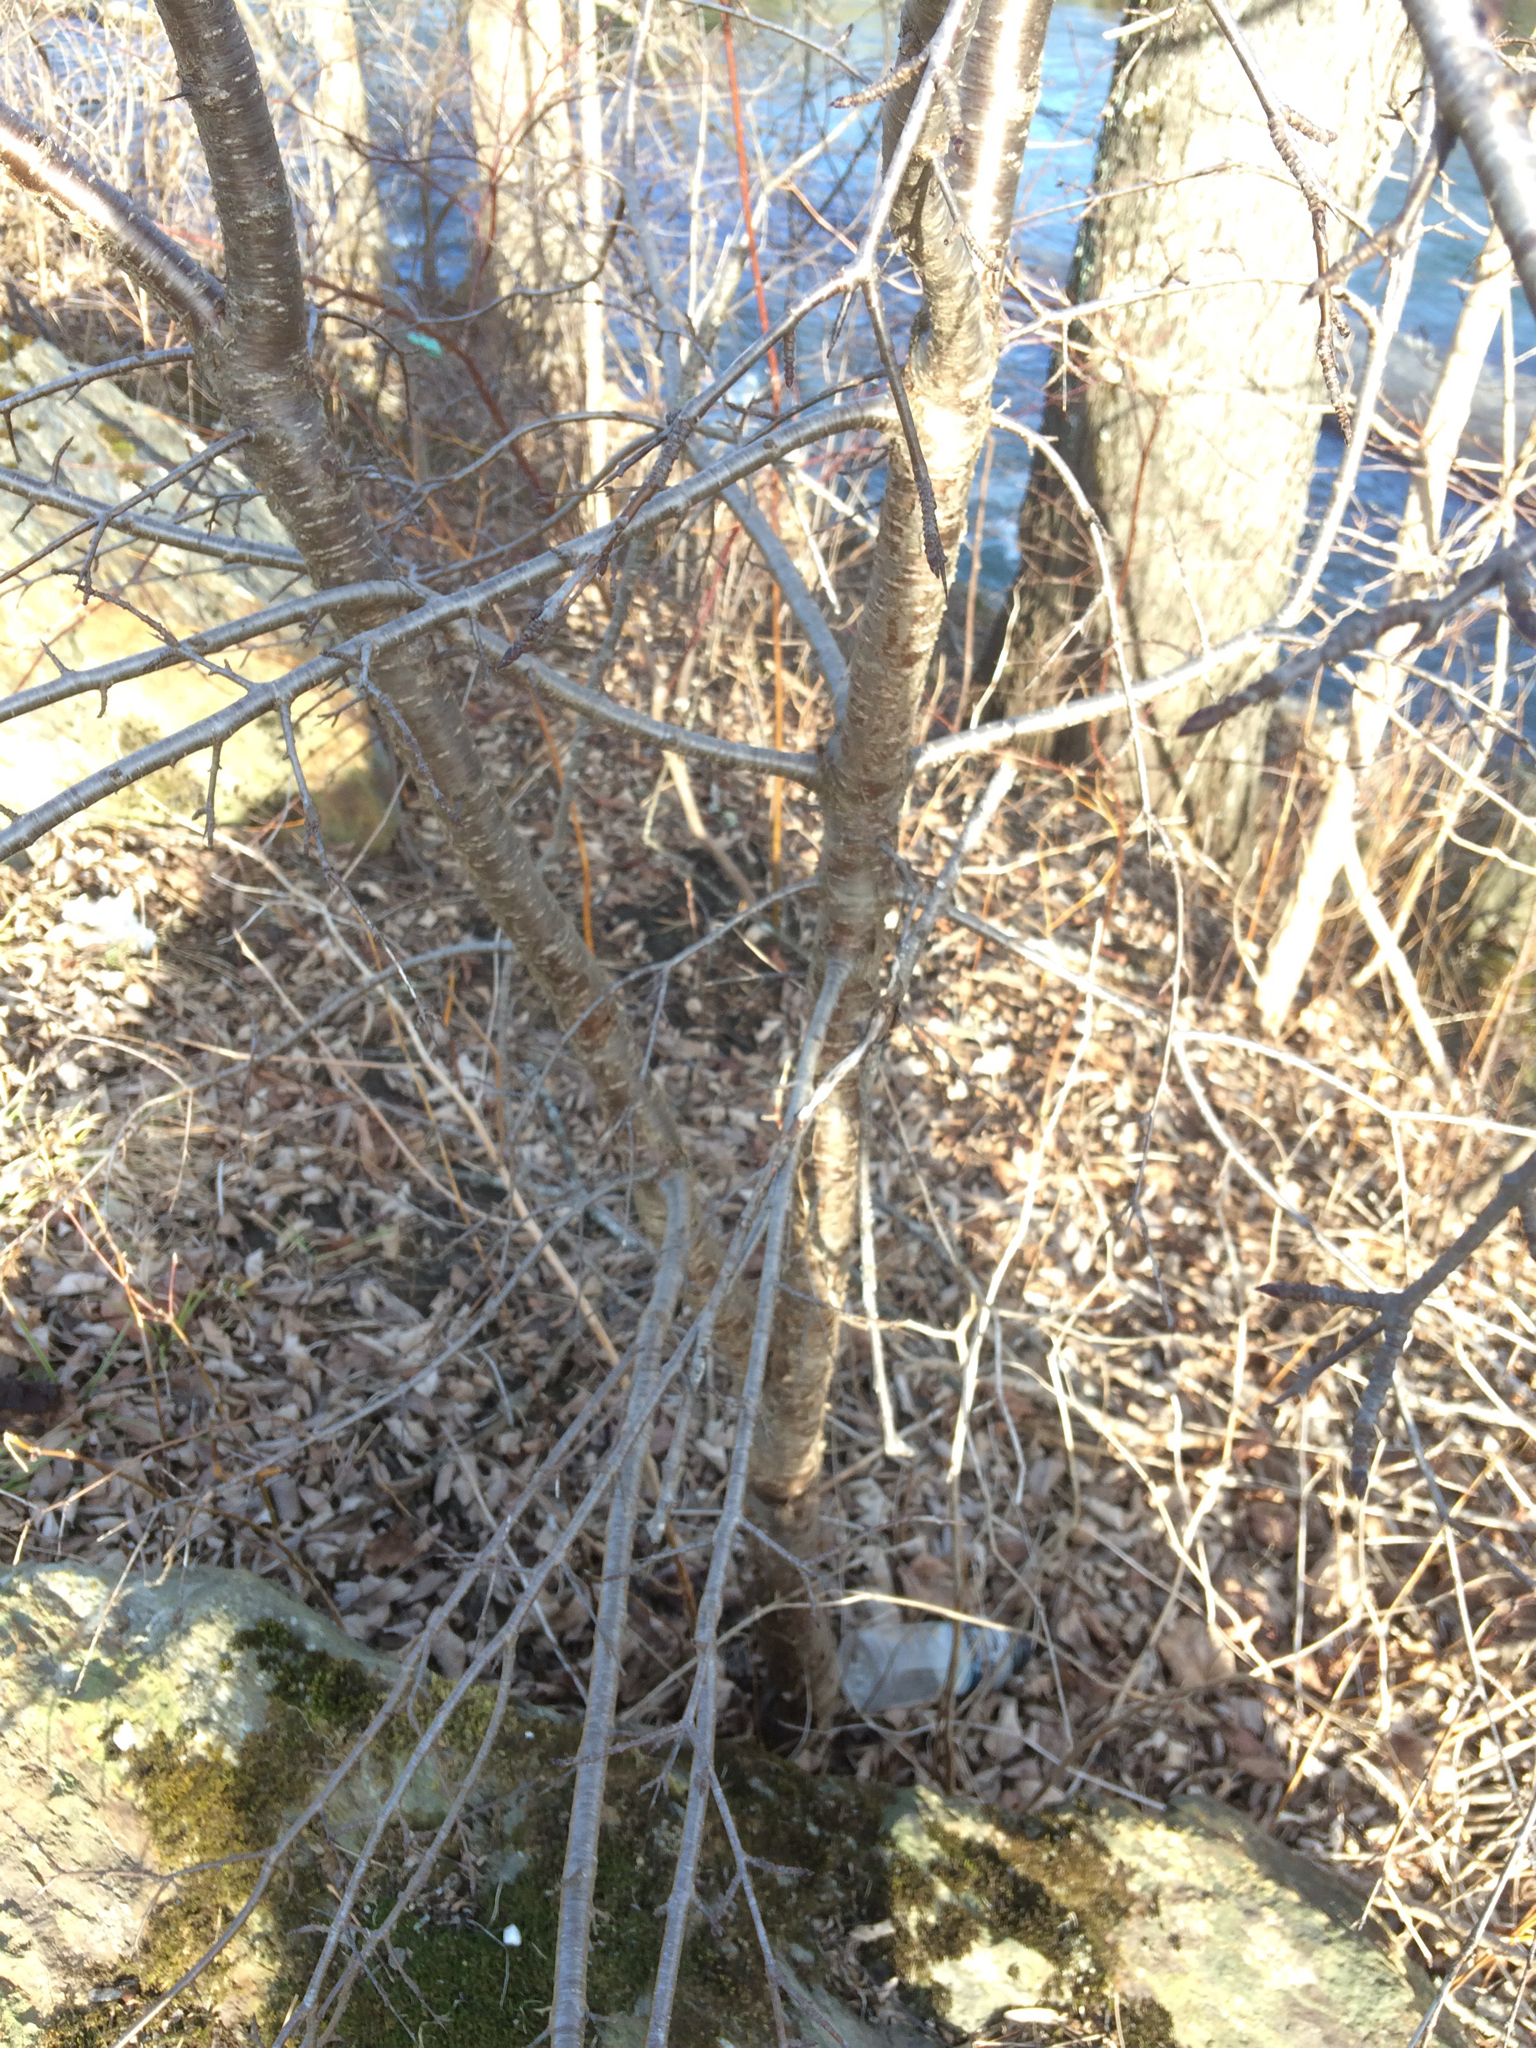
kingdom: Plantae
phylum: Tracheophyta
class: Magnoliopsida
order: Rosales
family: Rhamnaceae
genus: Rhamnus
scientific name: Rhamnus cathartica
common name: Common buckthorn
